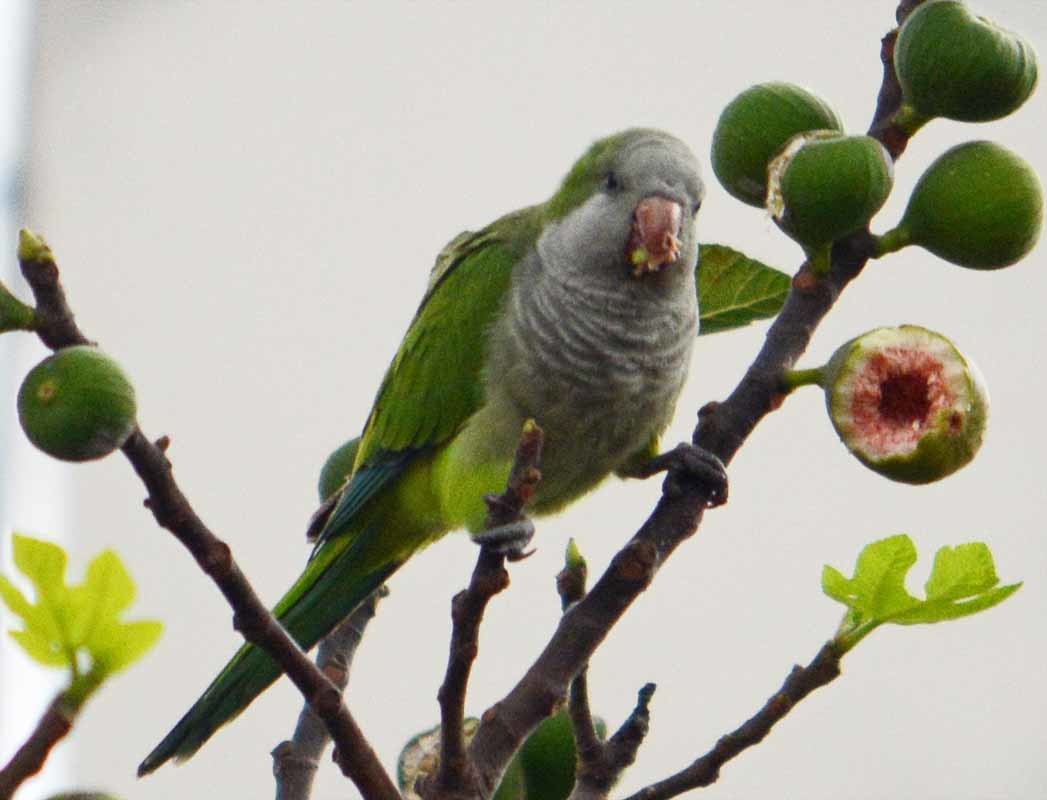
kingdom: Animalia
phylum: Chordata
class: Aves
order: Psittaciformes
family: Psittacidae
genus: Myiopsitta
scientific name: Myiopsitta monachus
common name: Monk parakeet
